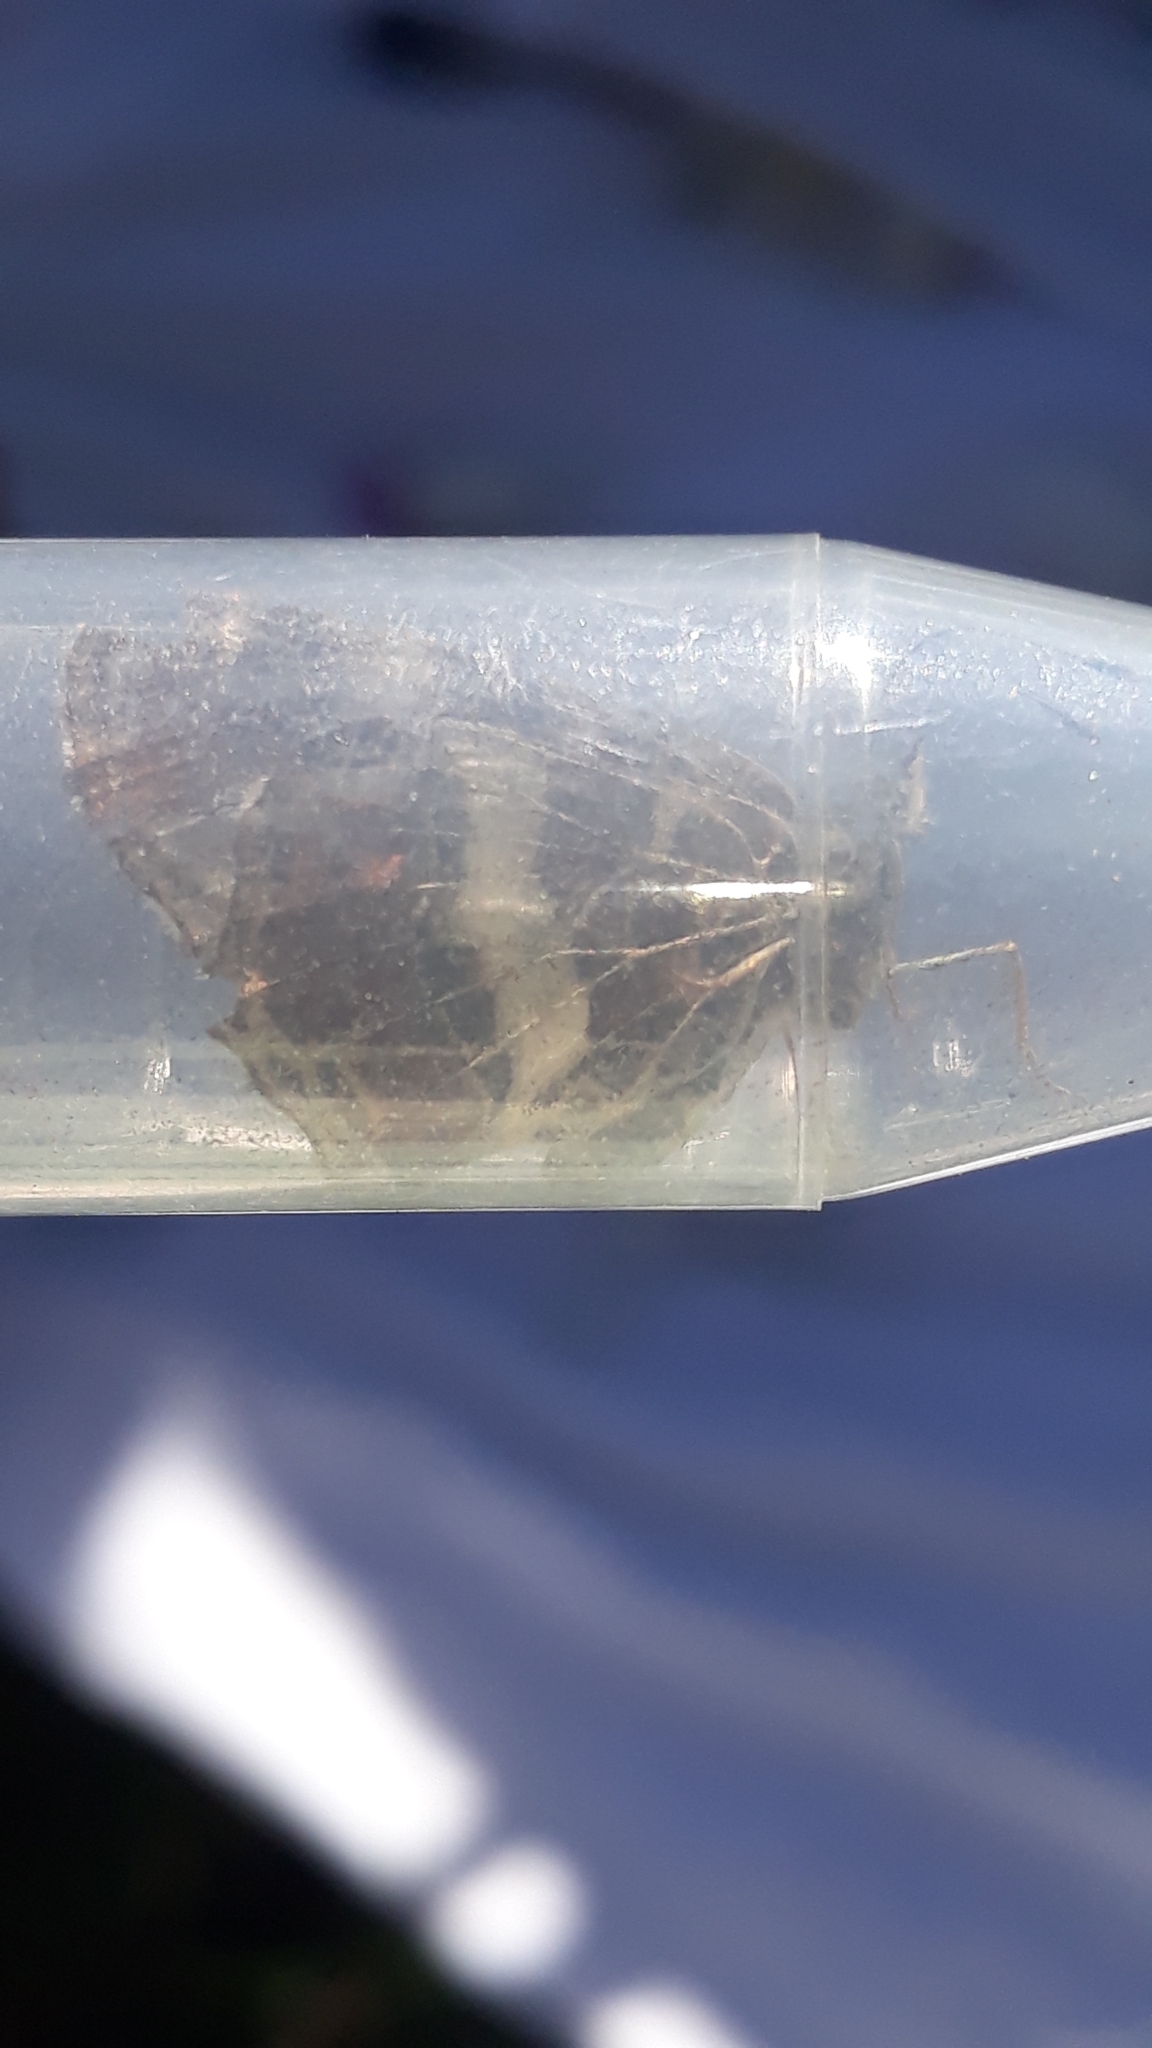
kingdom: Animalia
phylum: Arthropoda
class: Insecta
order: Lepidoptera
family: Nymphalidae
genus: Araschnia
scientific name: Araschnia levana
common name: Map butterfly
